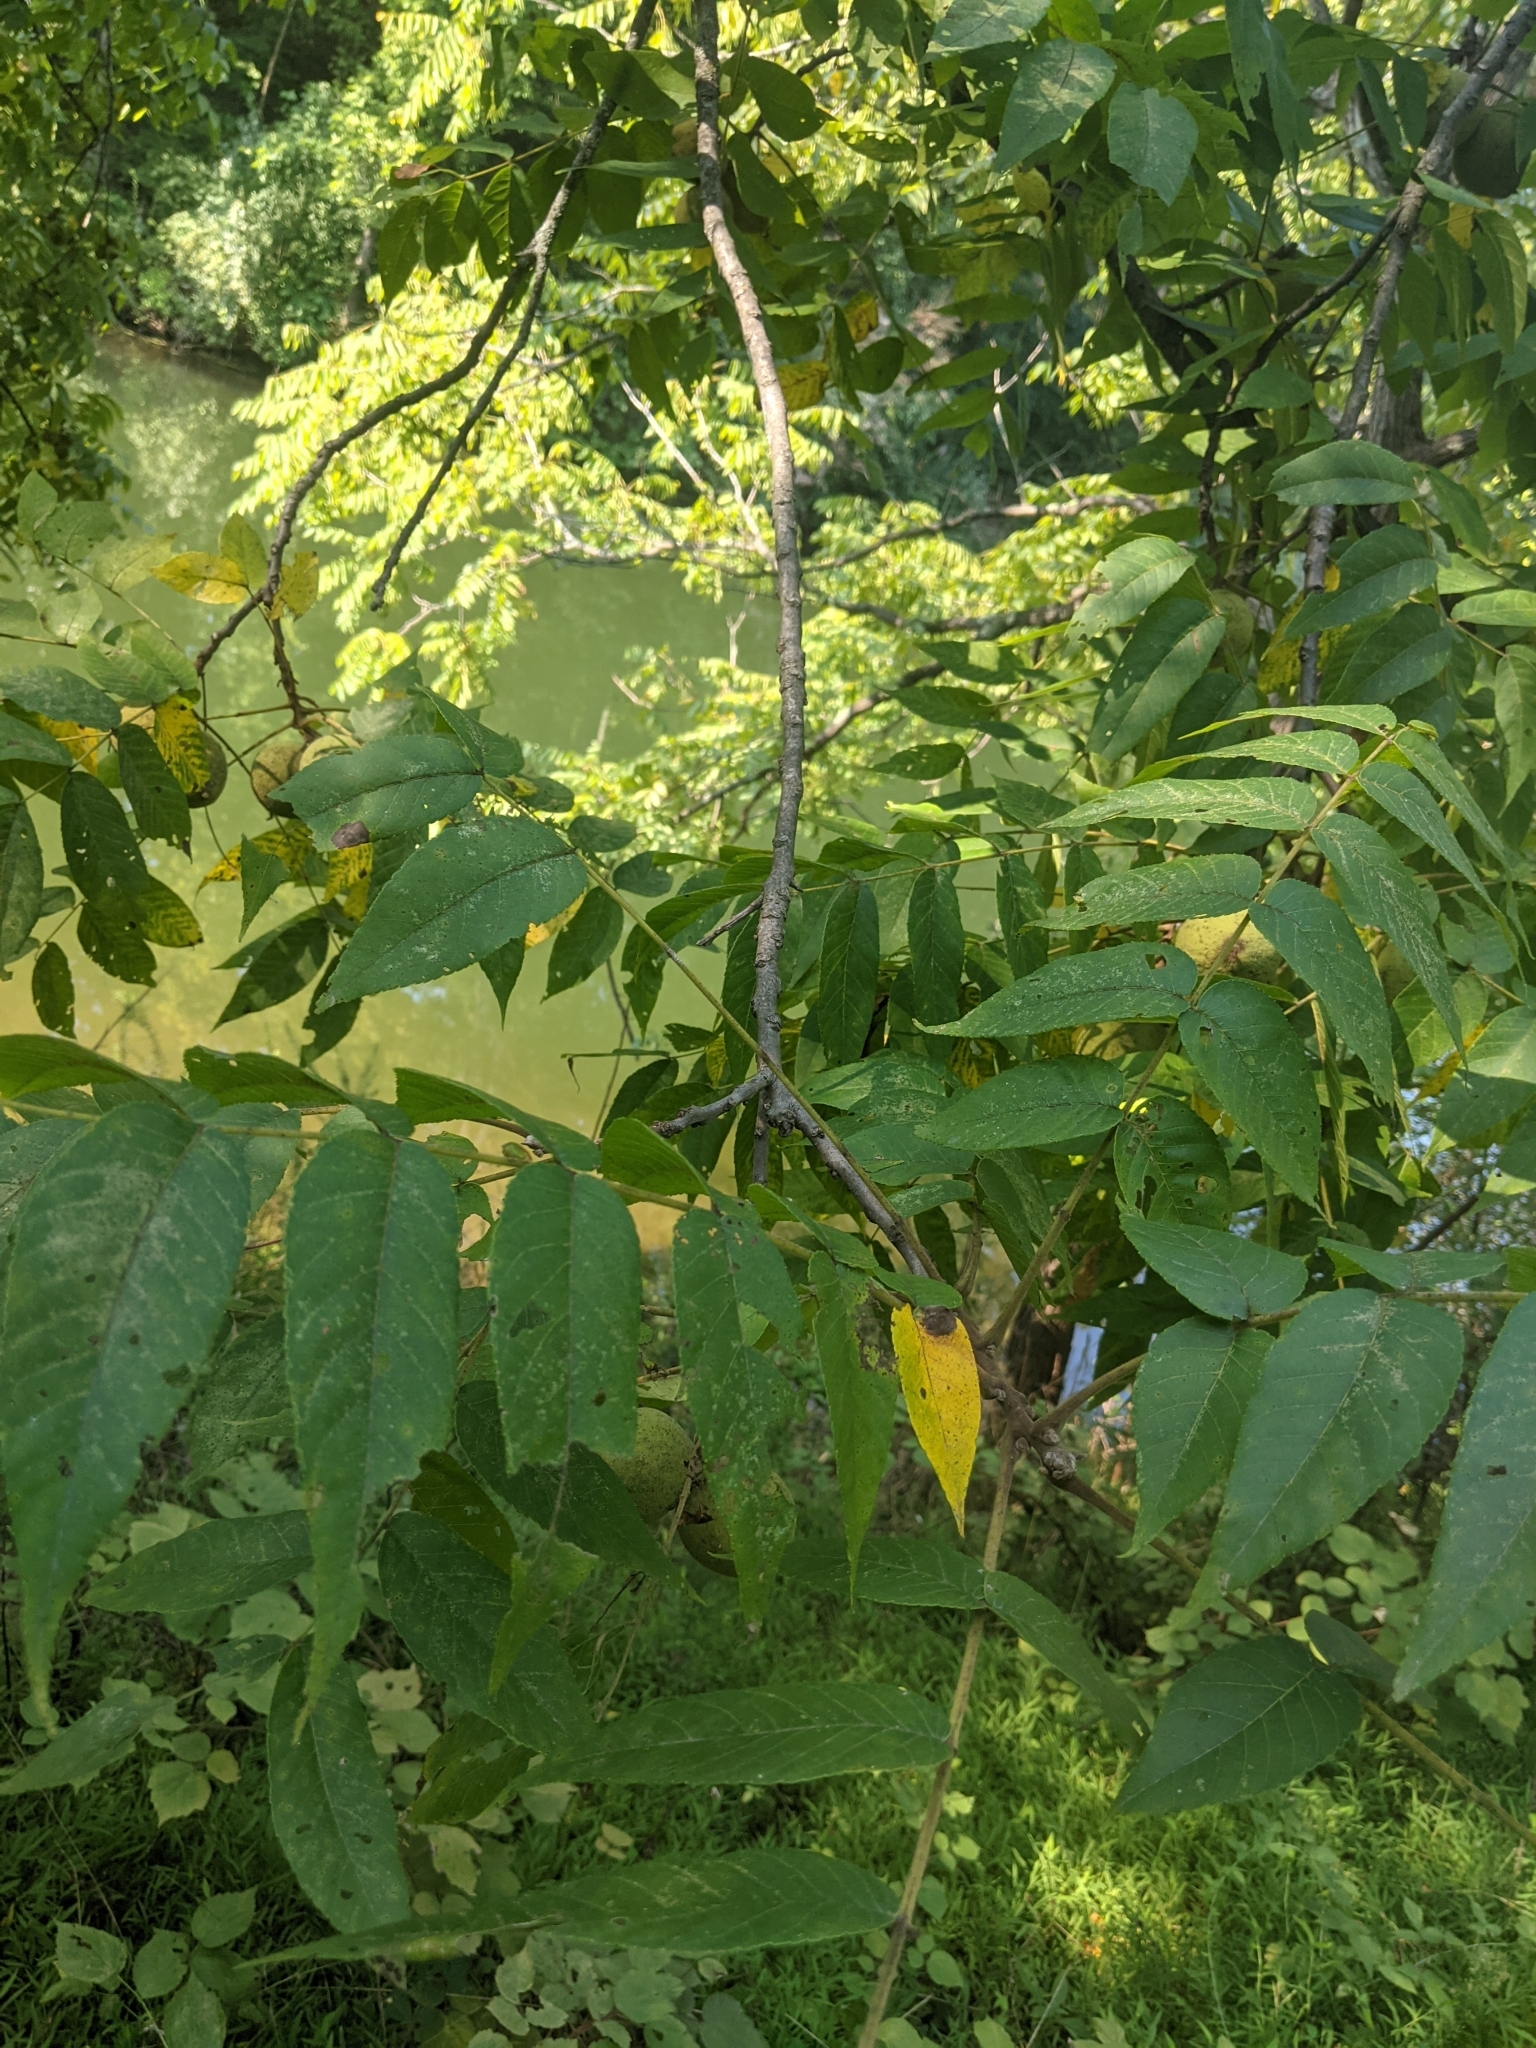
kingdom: Plantae
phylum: Tracheophyta
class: Magnoliopsida
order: Fagales
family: Juglandaceae
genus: Juglans
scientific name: Juglans nigra
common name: Black walnut
